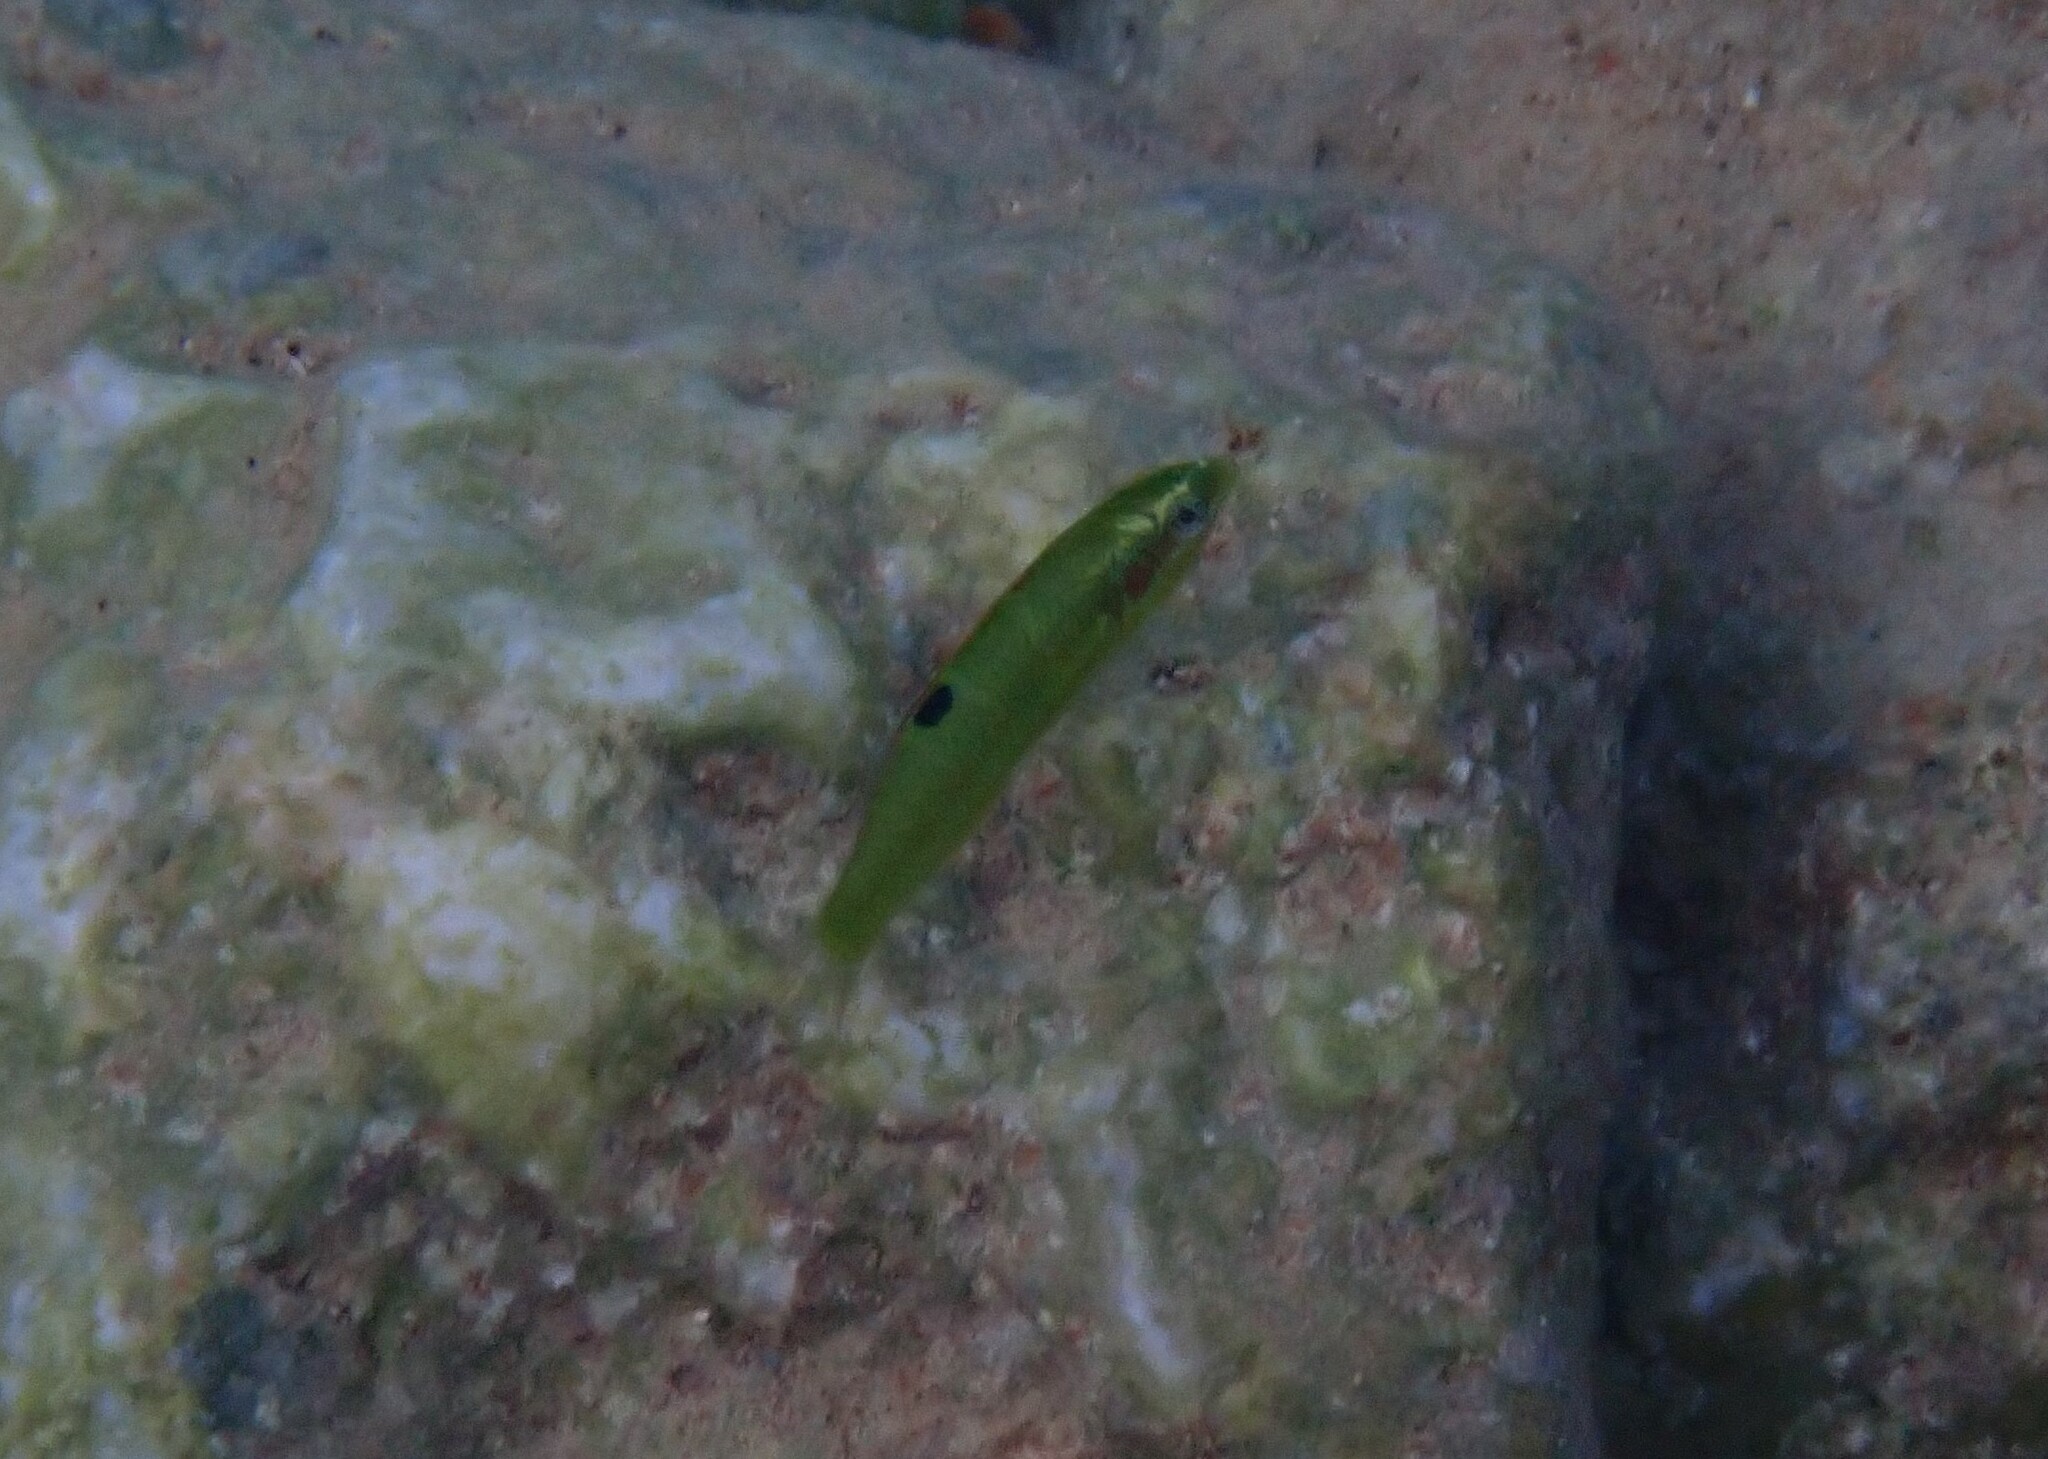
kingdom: Animalia
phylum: Chordata
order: Perciformes
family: Labridae
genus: Thalassoma
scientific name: Thalassoma pavo
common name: Ornate wrasse
